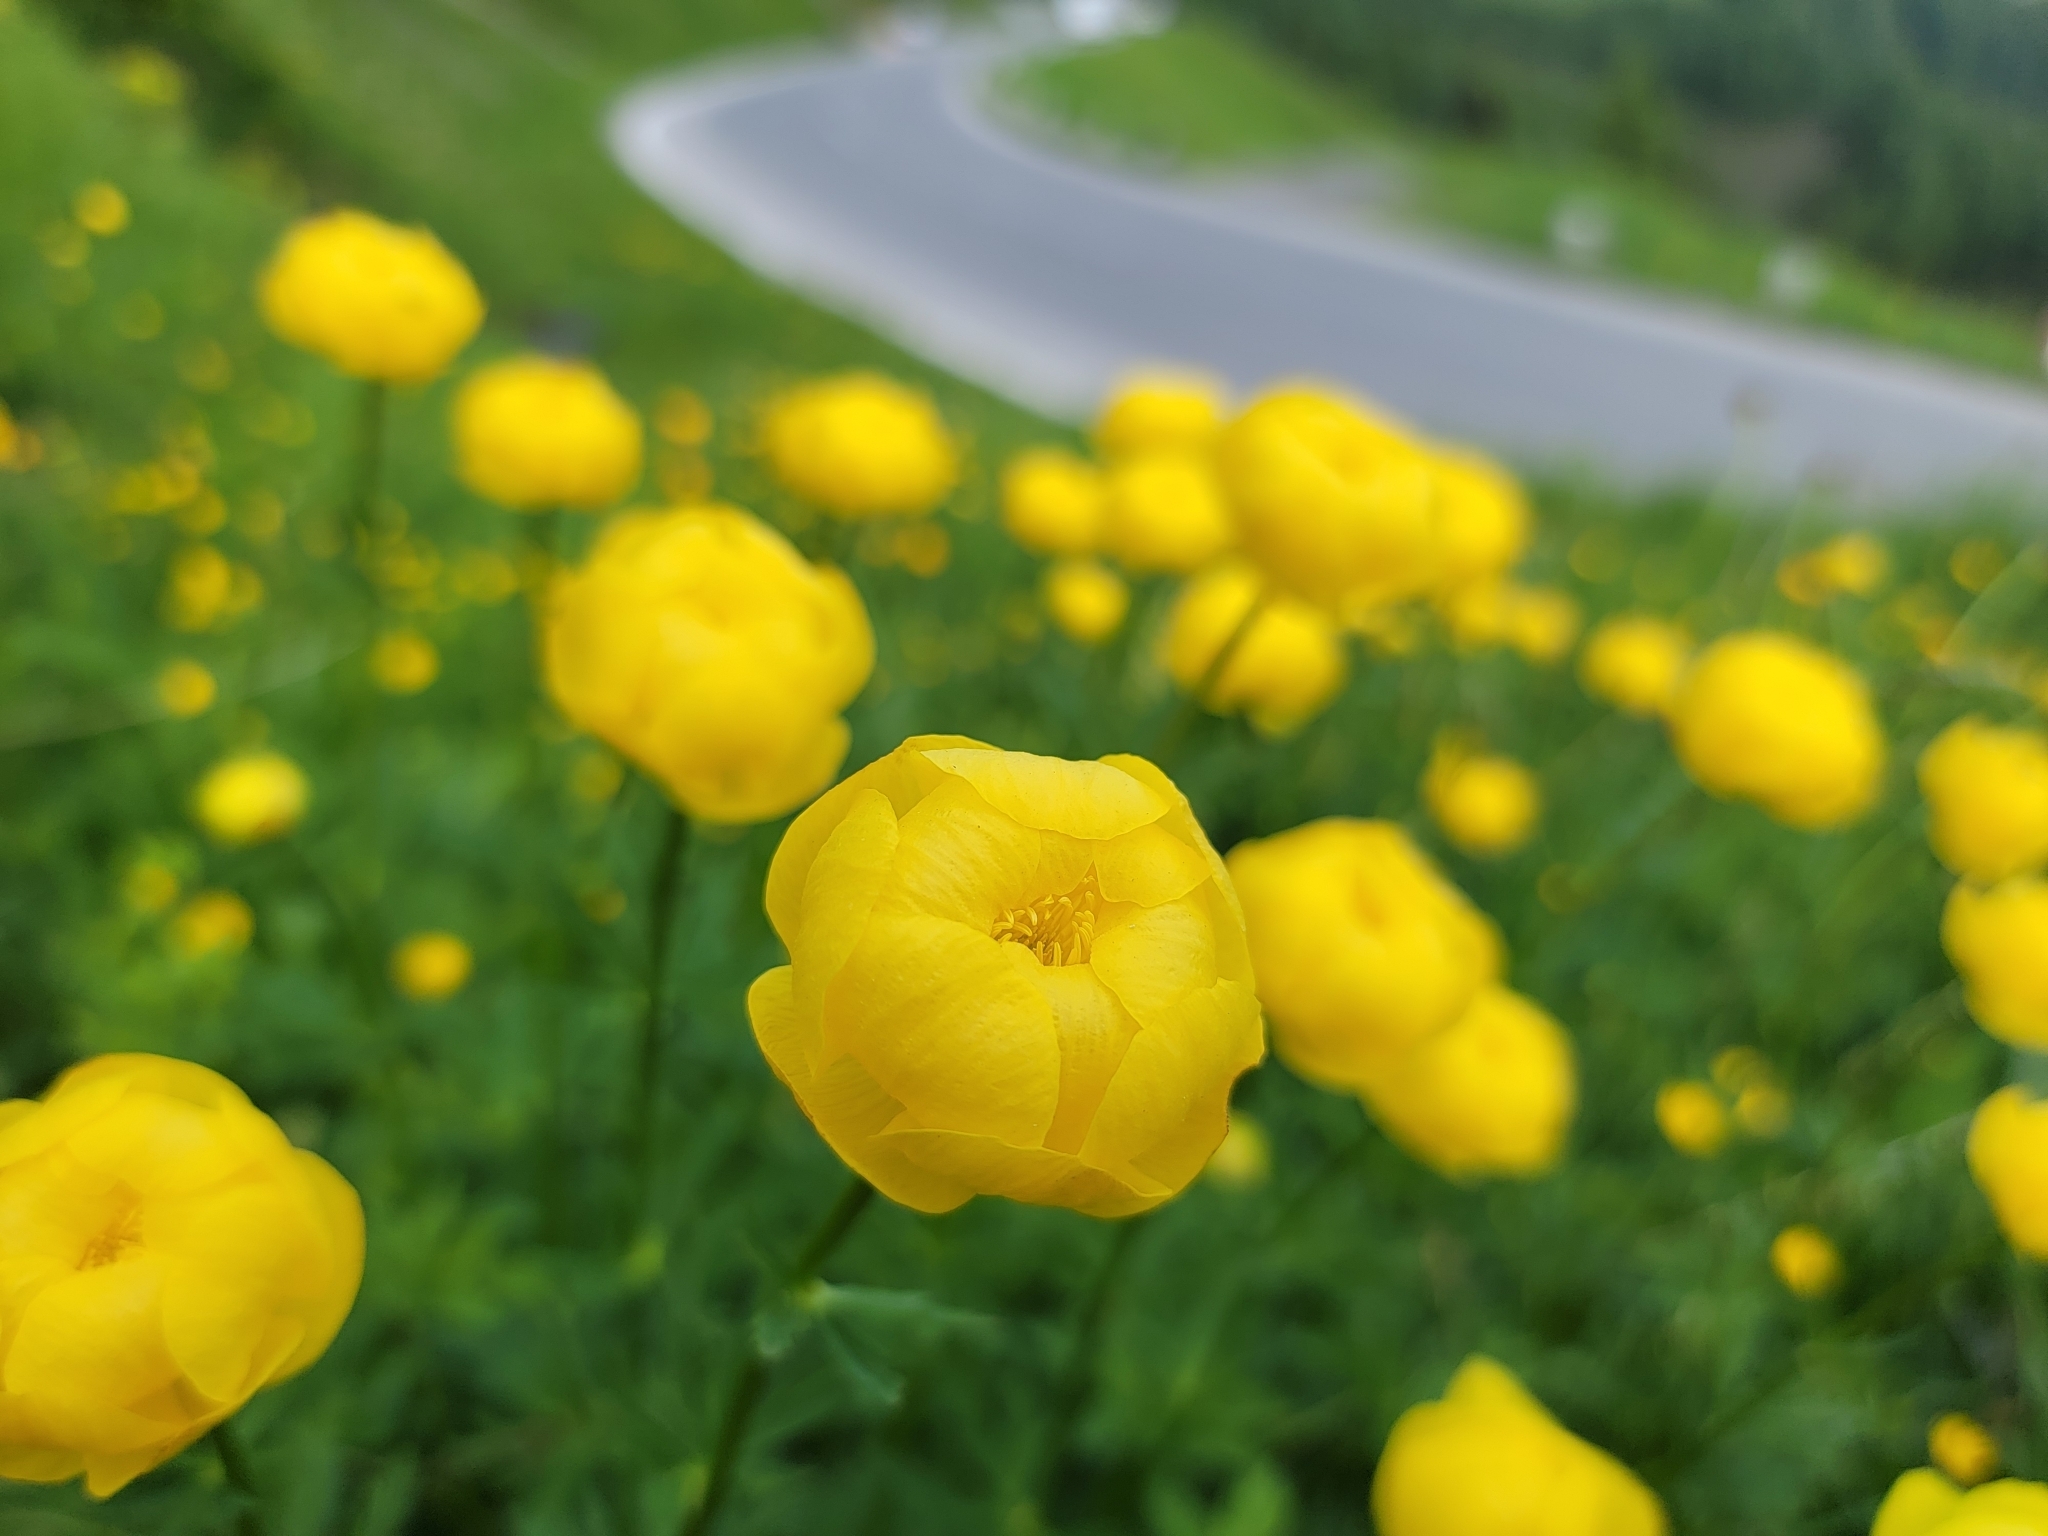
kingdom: Plantae
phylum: Tracheophyta
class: Magnoliopsida
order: Ranunculales
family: Ranunculaceae
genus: Trollius
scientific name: Trollius europaeus
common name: European globeflower
